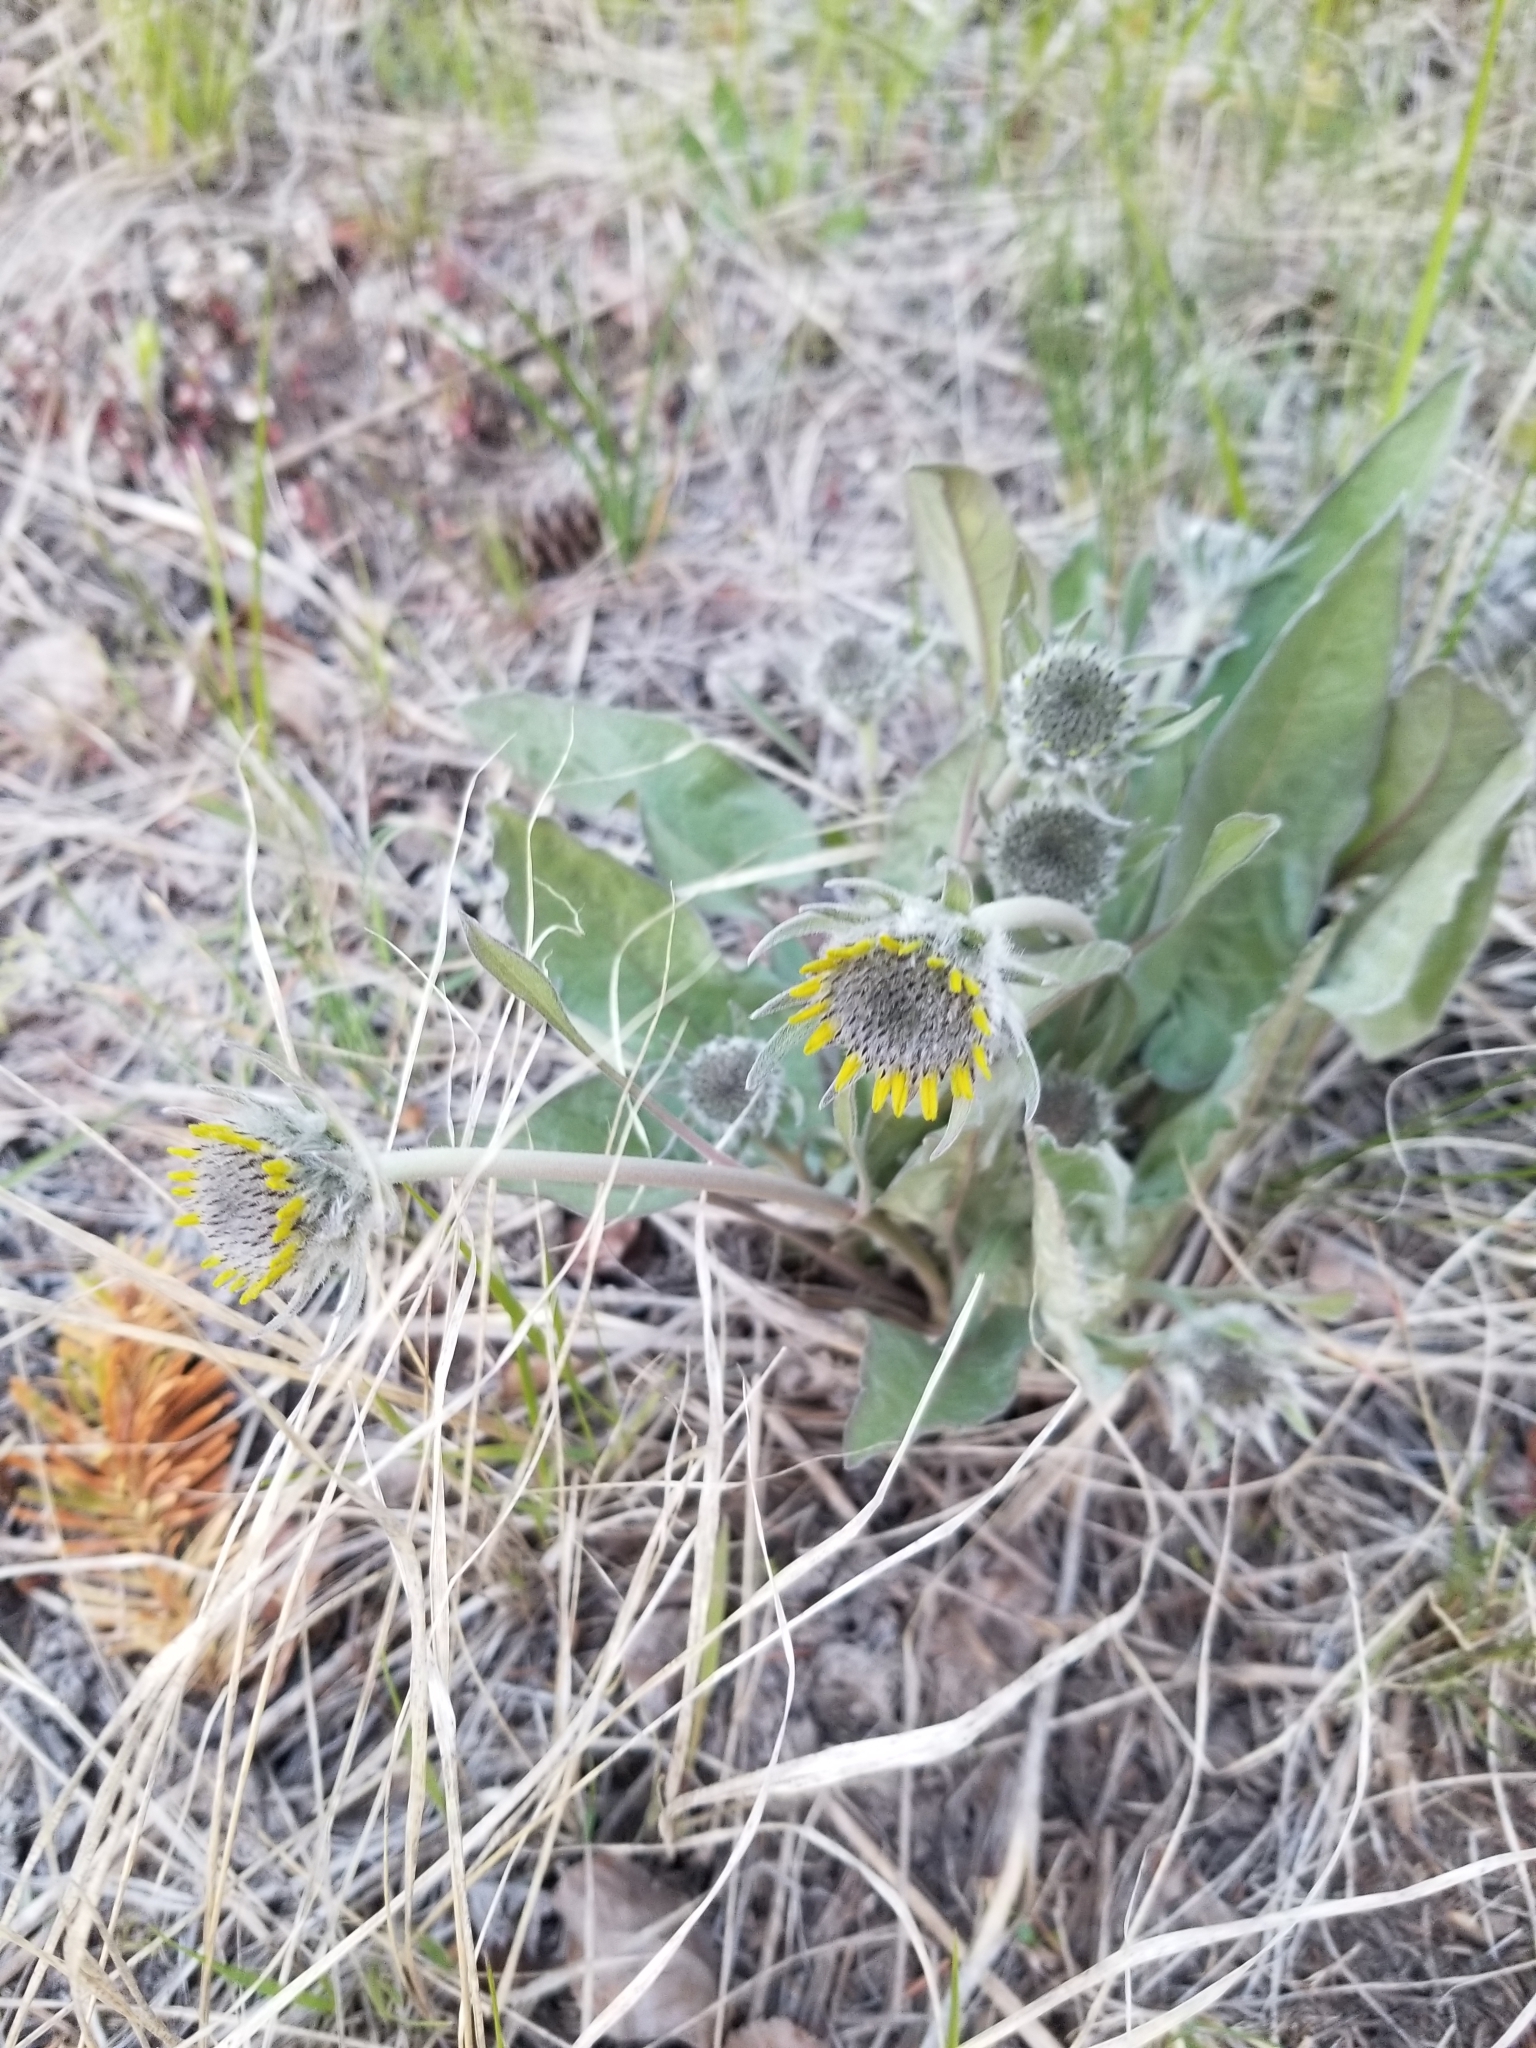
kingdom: Plantae
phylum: Tracheophyta
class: Magnoliopsida
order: Asterales
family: Asteraceae
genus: Wyethia
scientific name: Wyethia sagittata
